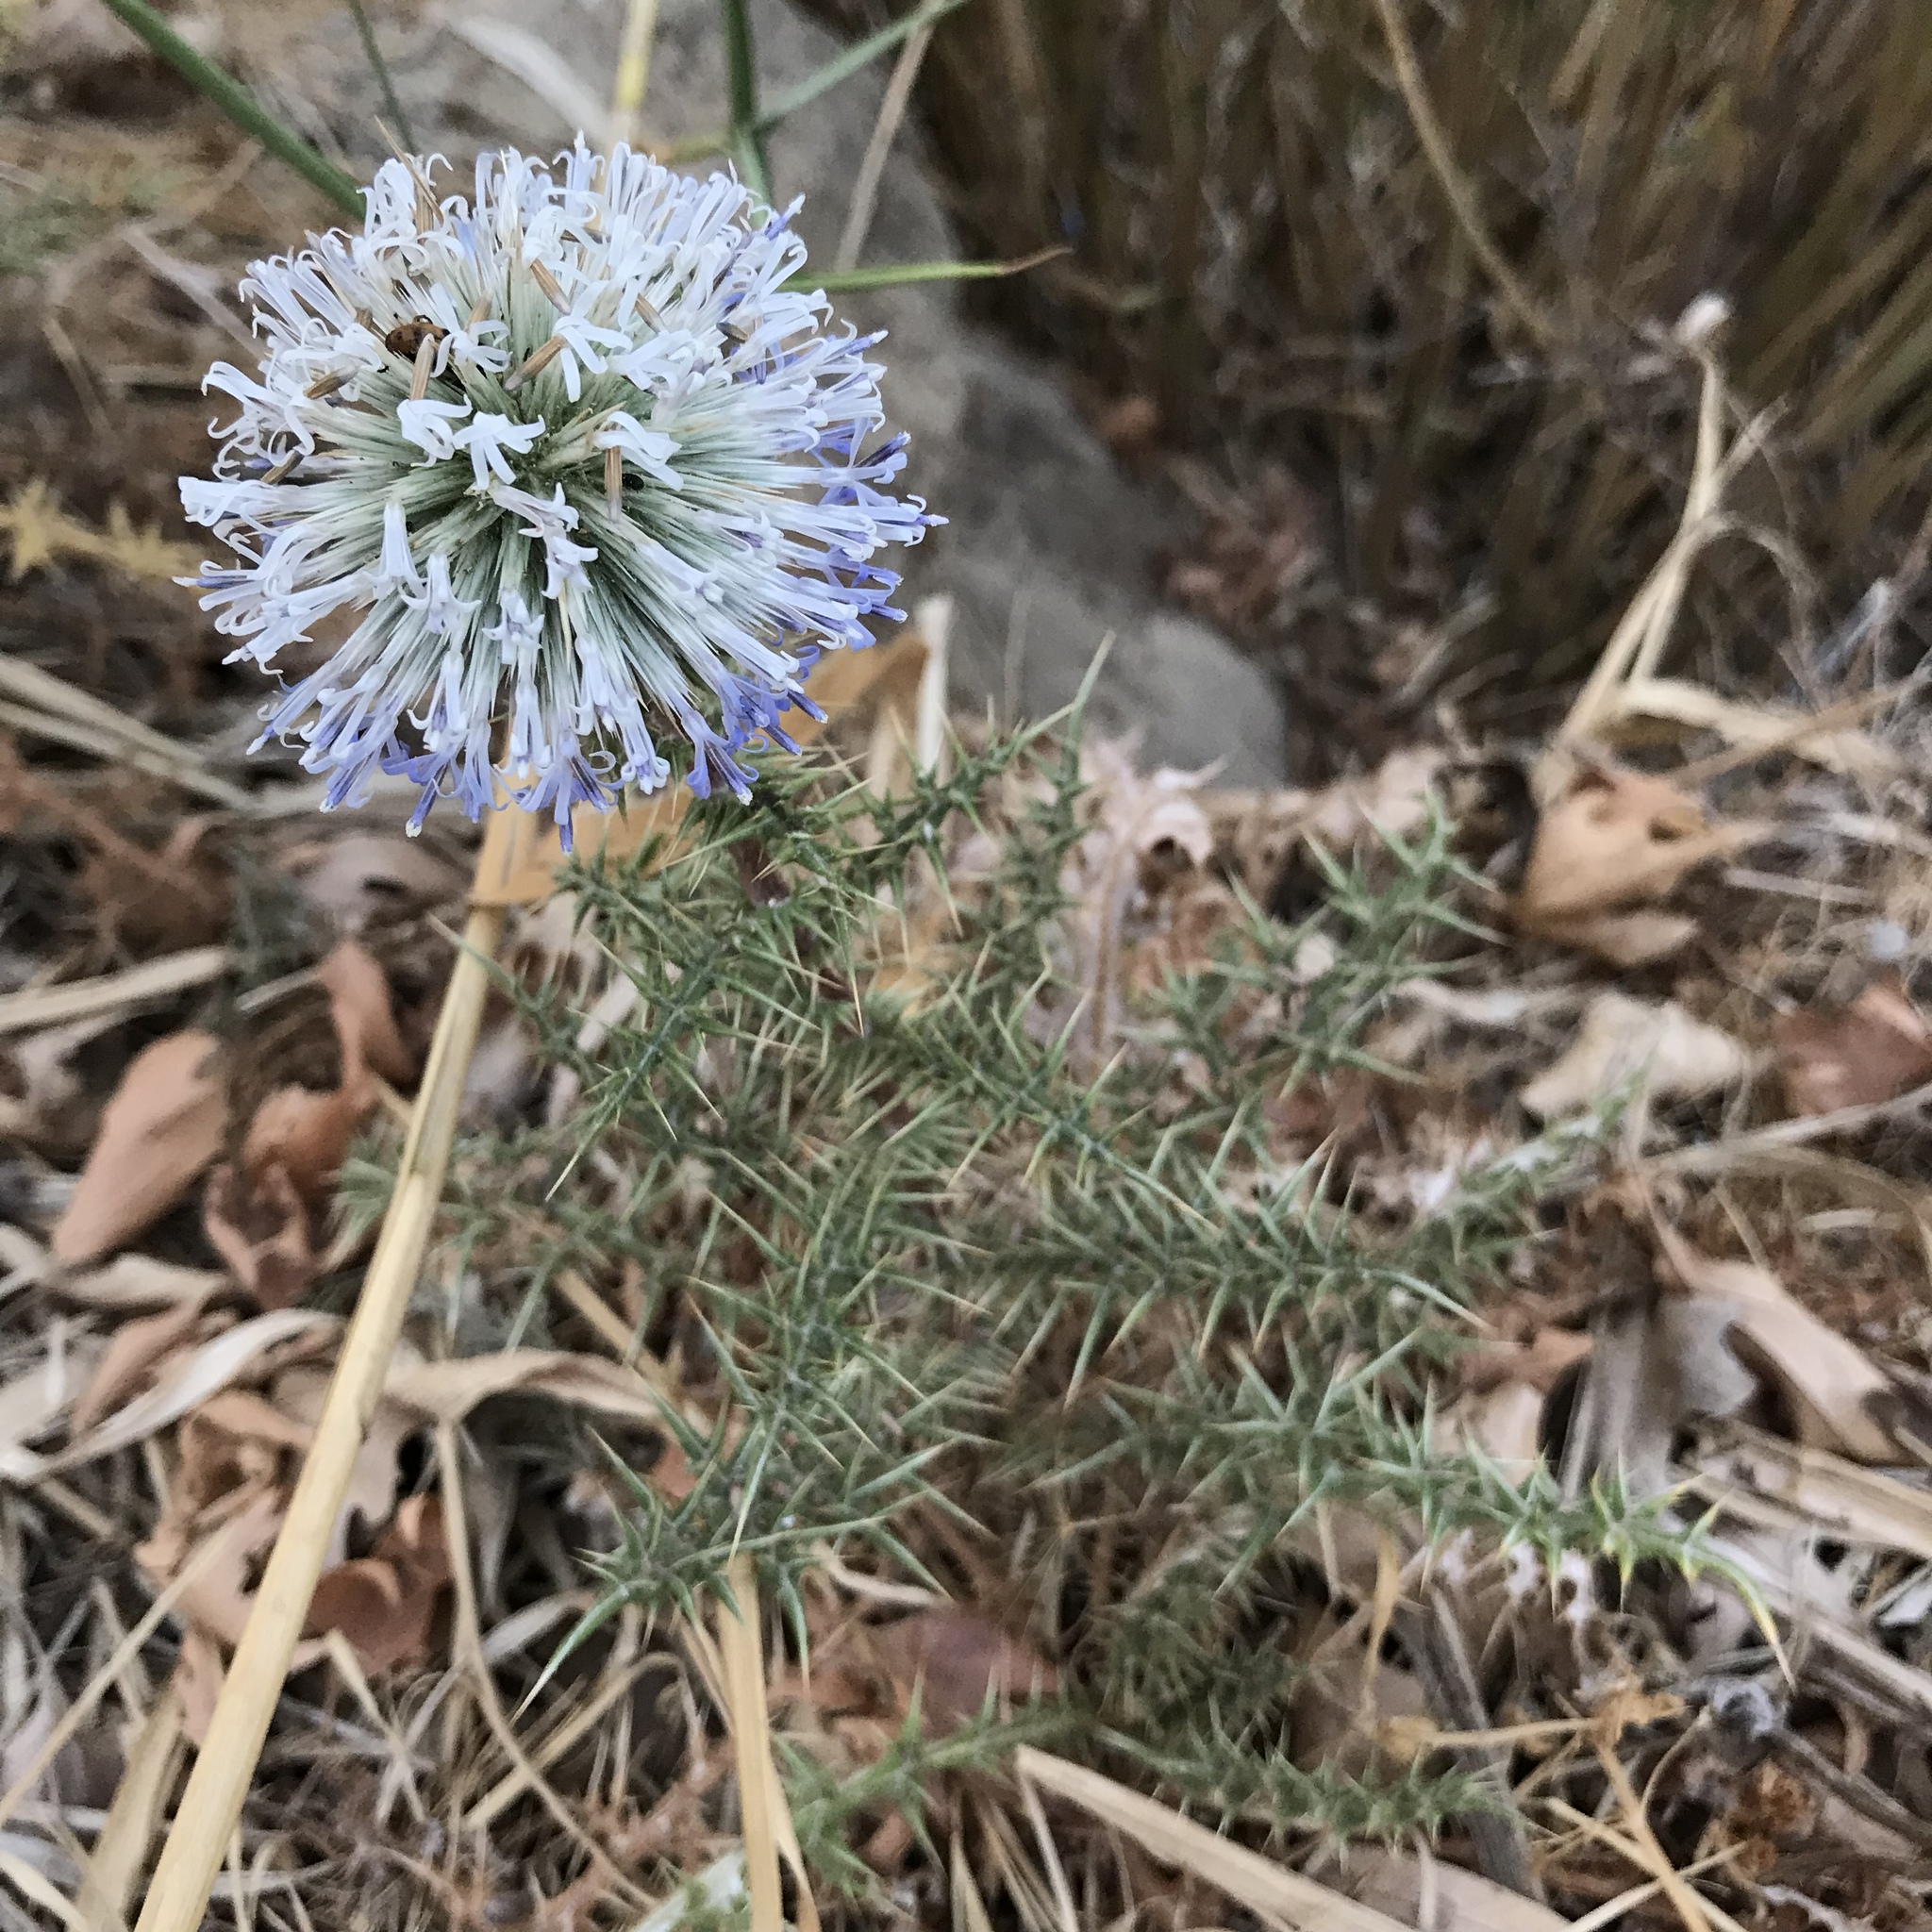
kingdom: Plantae
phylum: Tracheophyta
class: Magnoliopsida
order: Asterales
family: Asteraceae
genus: Echinops
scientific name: Echinops spinosissimus
